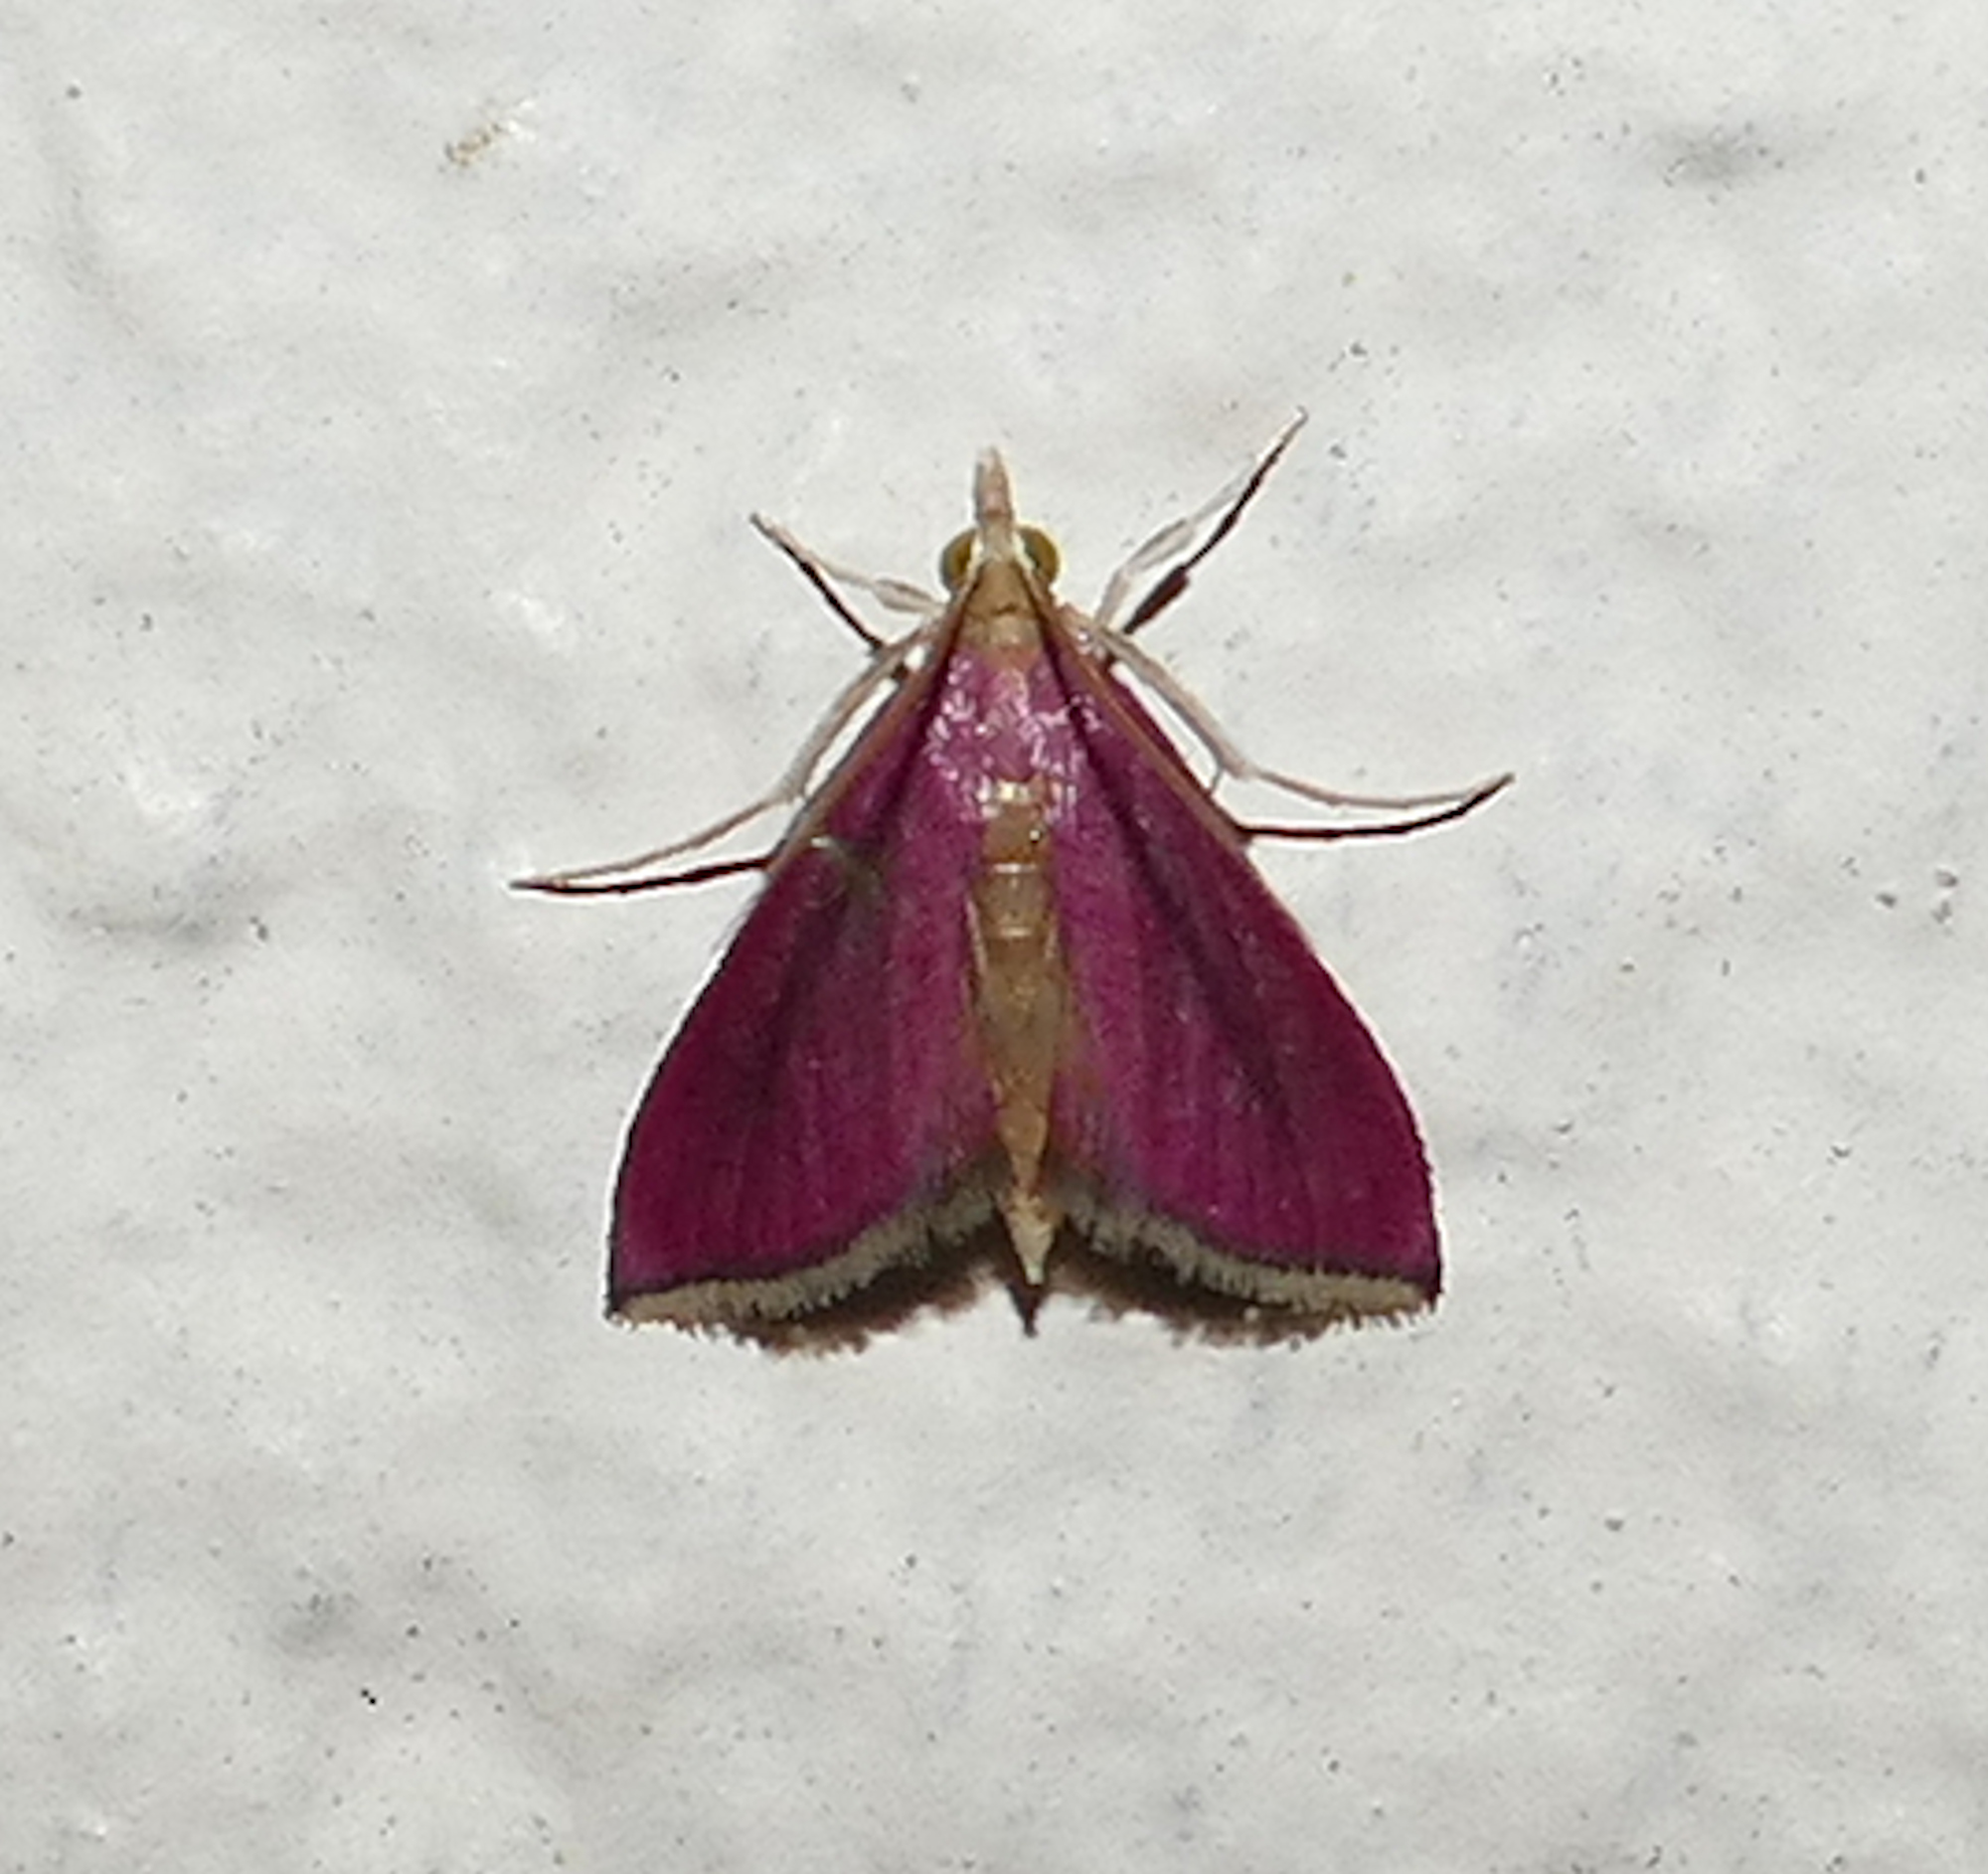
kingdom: Animalia
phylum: Arthropoda
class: Insecta
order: Lepidoptera
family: Crambidae
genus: Pyrausta
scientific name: Pyrausta inornatalis
